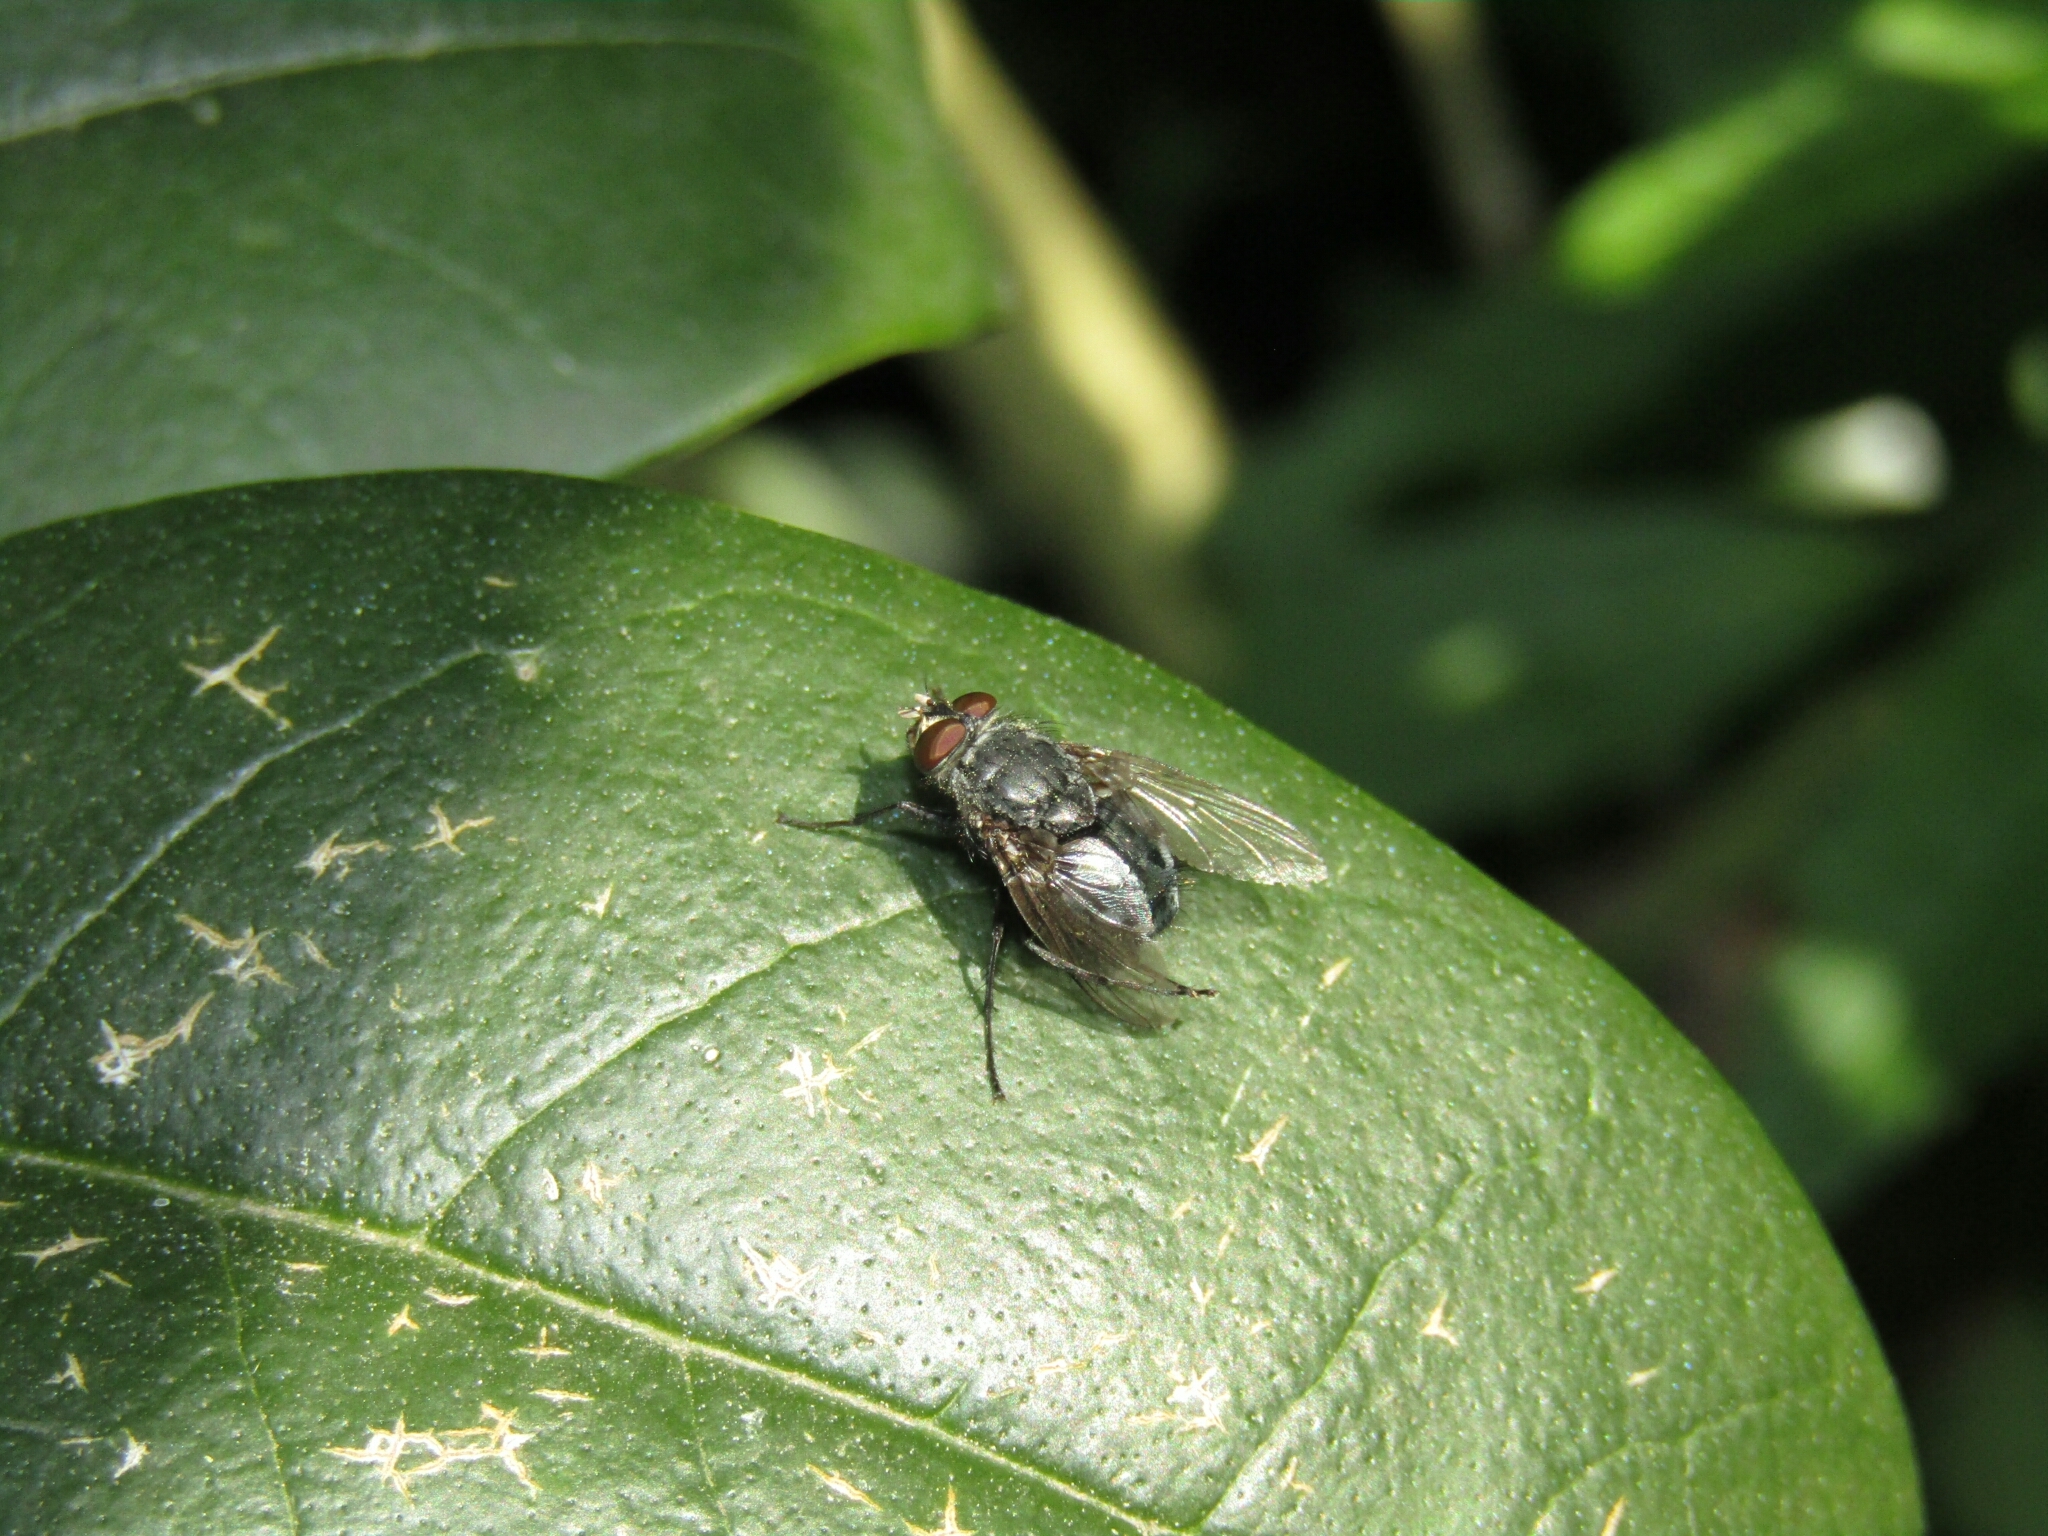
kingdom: Animalia
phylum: Arthropoda
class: Insecta
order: Diptera
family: Calliphoridae
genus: Calliphora
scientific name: Calliphora vicina
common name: Common blow flie
